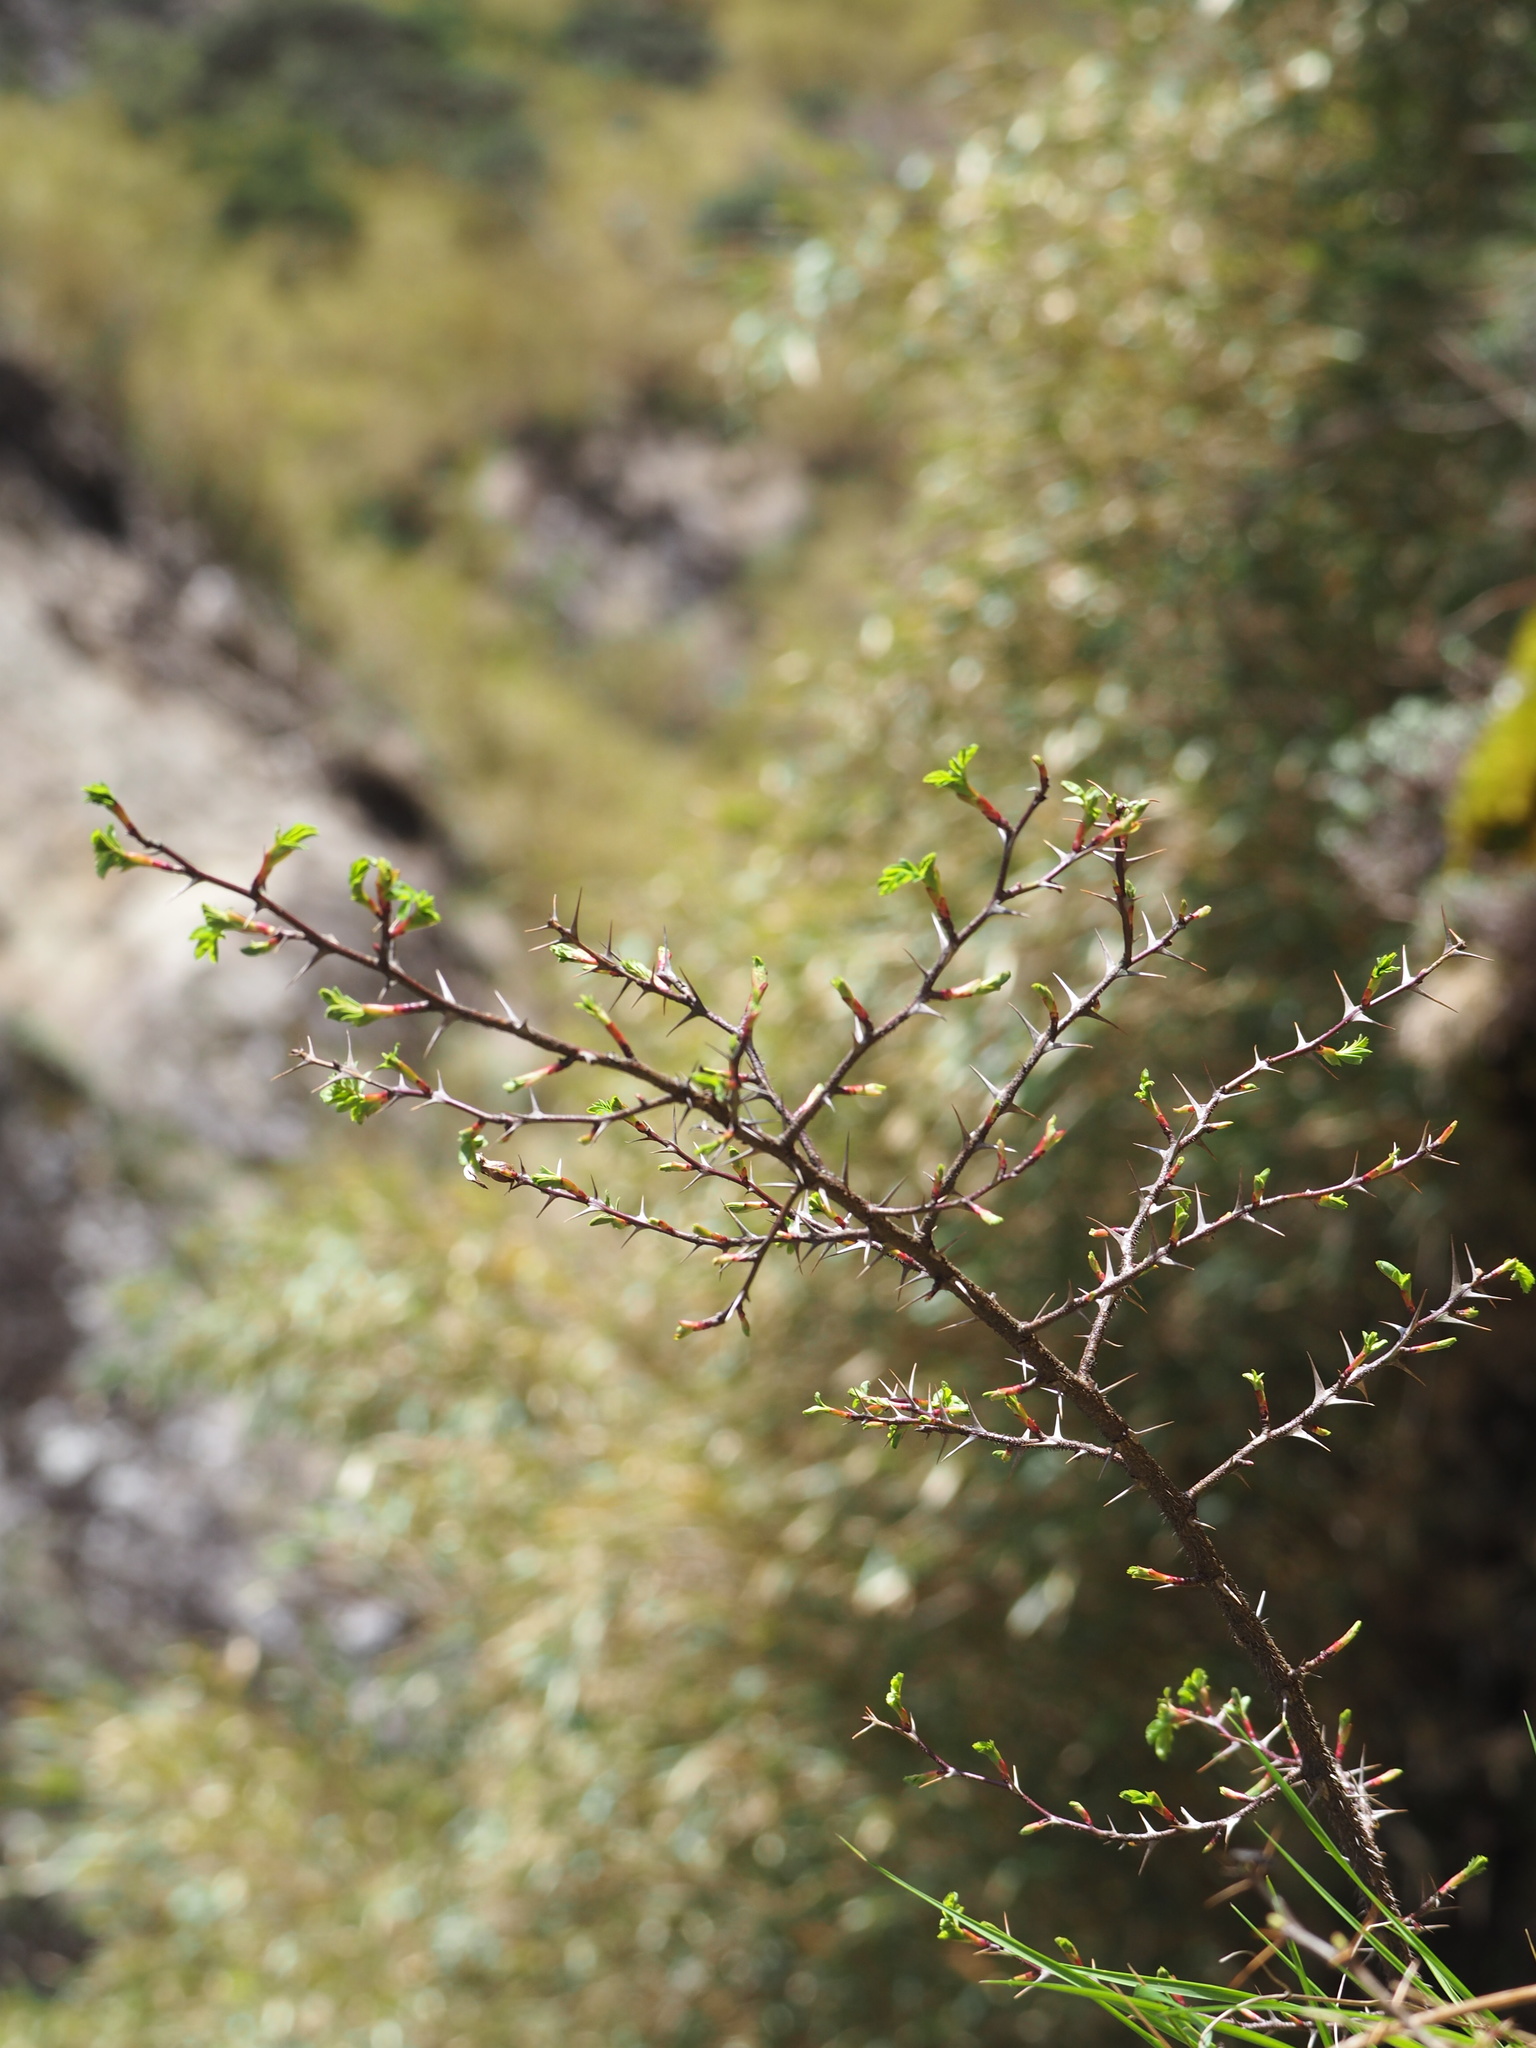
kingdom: Plantae
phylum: Tracheophyta
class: Magnoliopsida
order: Rosales
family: Rosaceae
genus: Rosa
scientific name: Rosa morrisonensis
